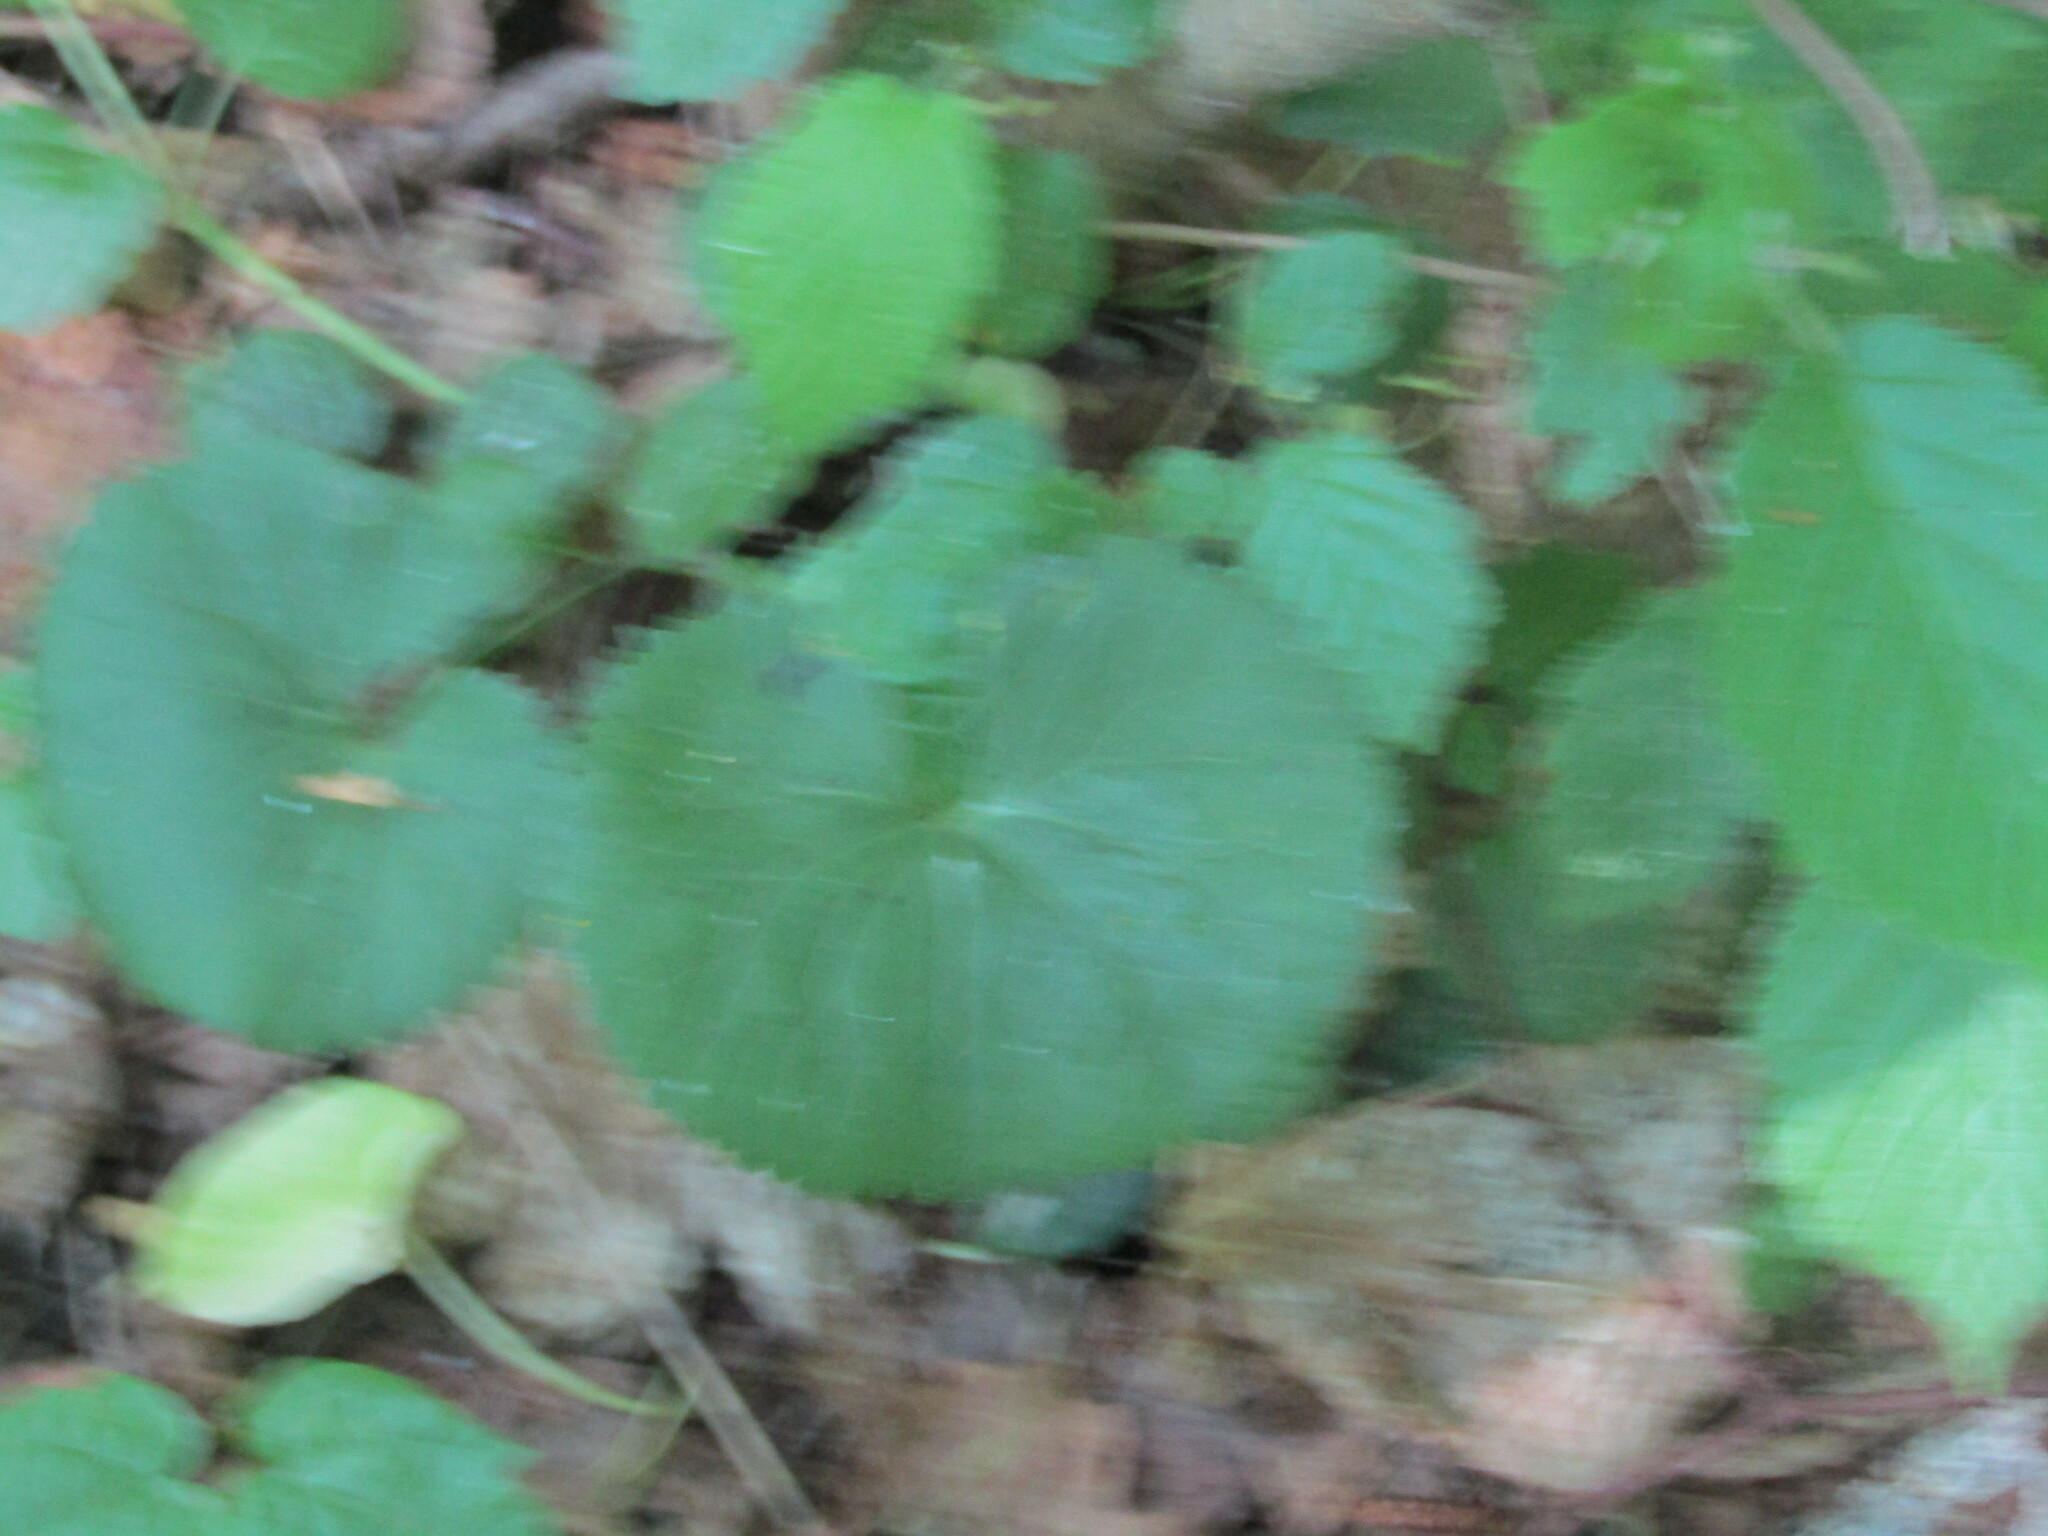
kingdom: Plantae
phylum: Tracheophyta
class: Magnoliopsida
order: Ranunculales
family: Ranunculaceae
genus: Ranunculus
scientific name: Ranunculus cassubicus
